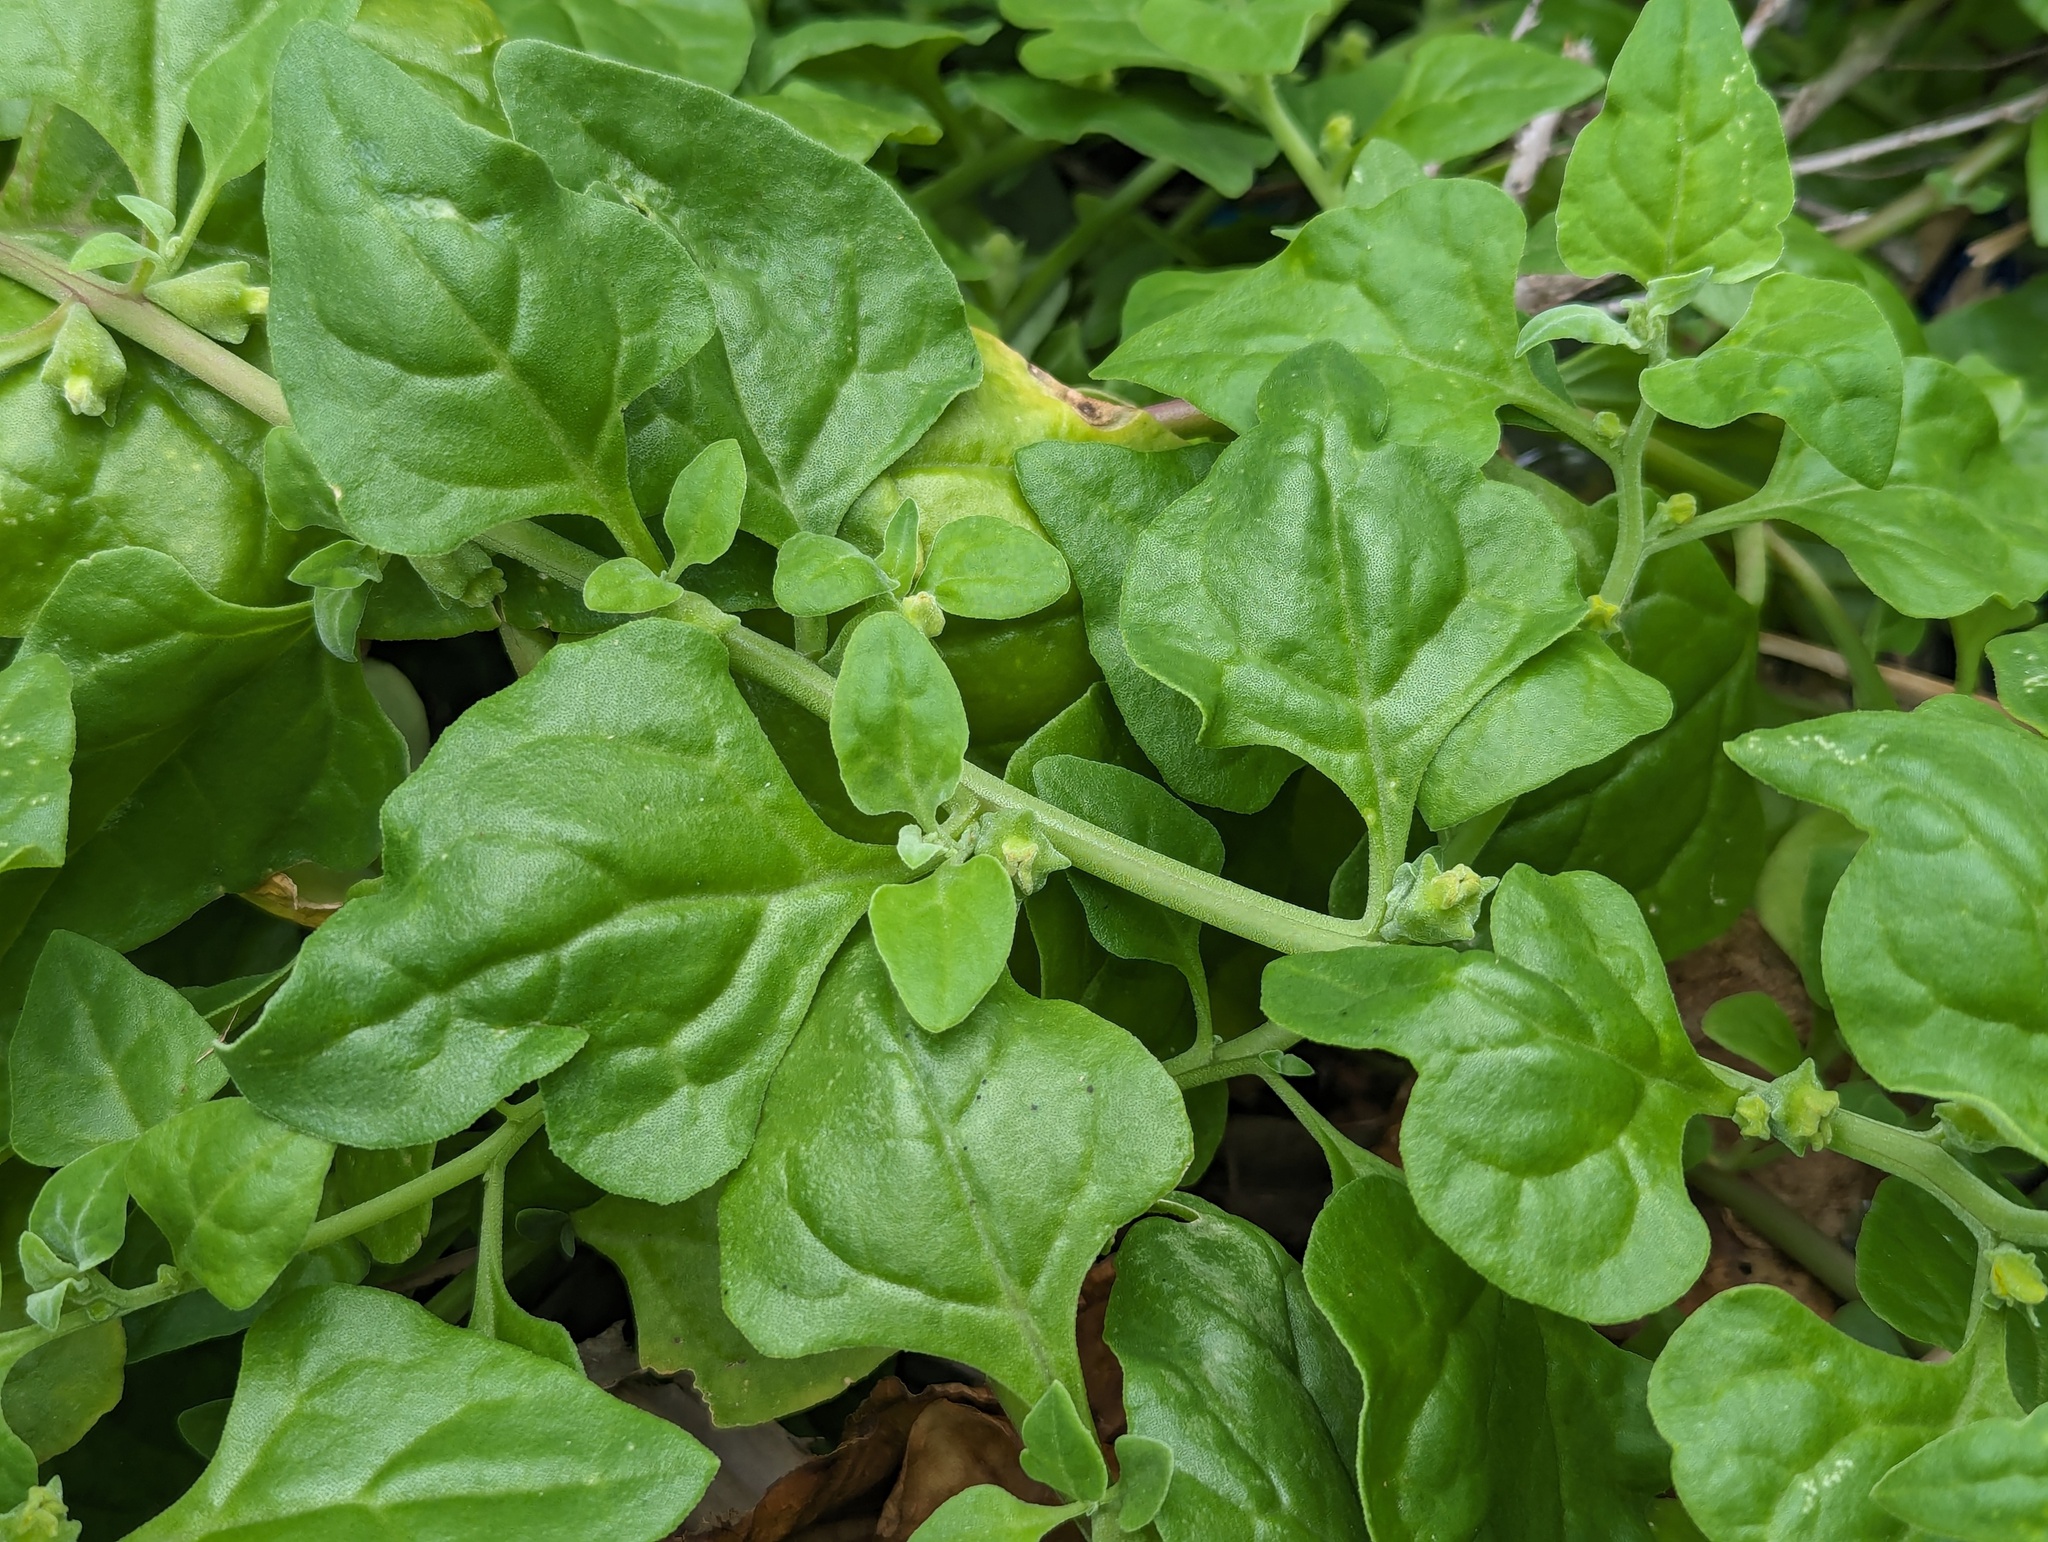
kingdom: Plantae
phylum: Tracheophyta
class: Magnoliopsida
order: Caryophyllales
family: Aizoaceae
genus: Tetragonia
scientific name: Tetragonia tetragonoides
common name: New zealand-spinach
